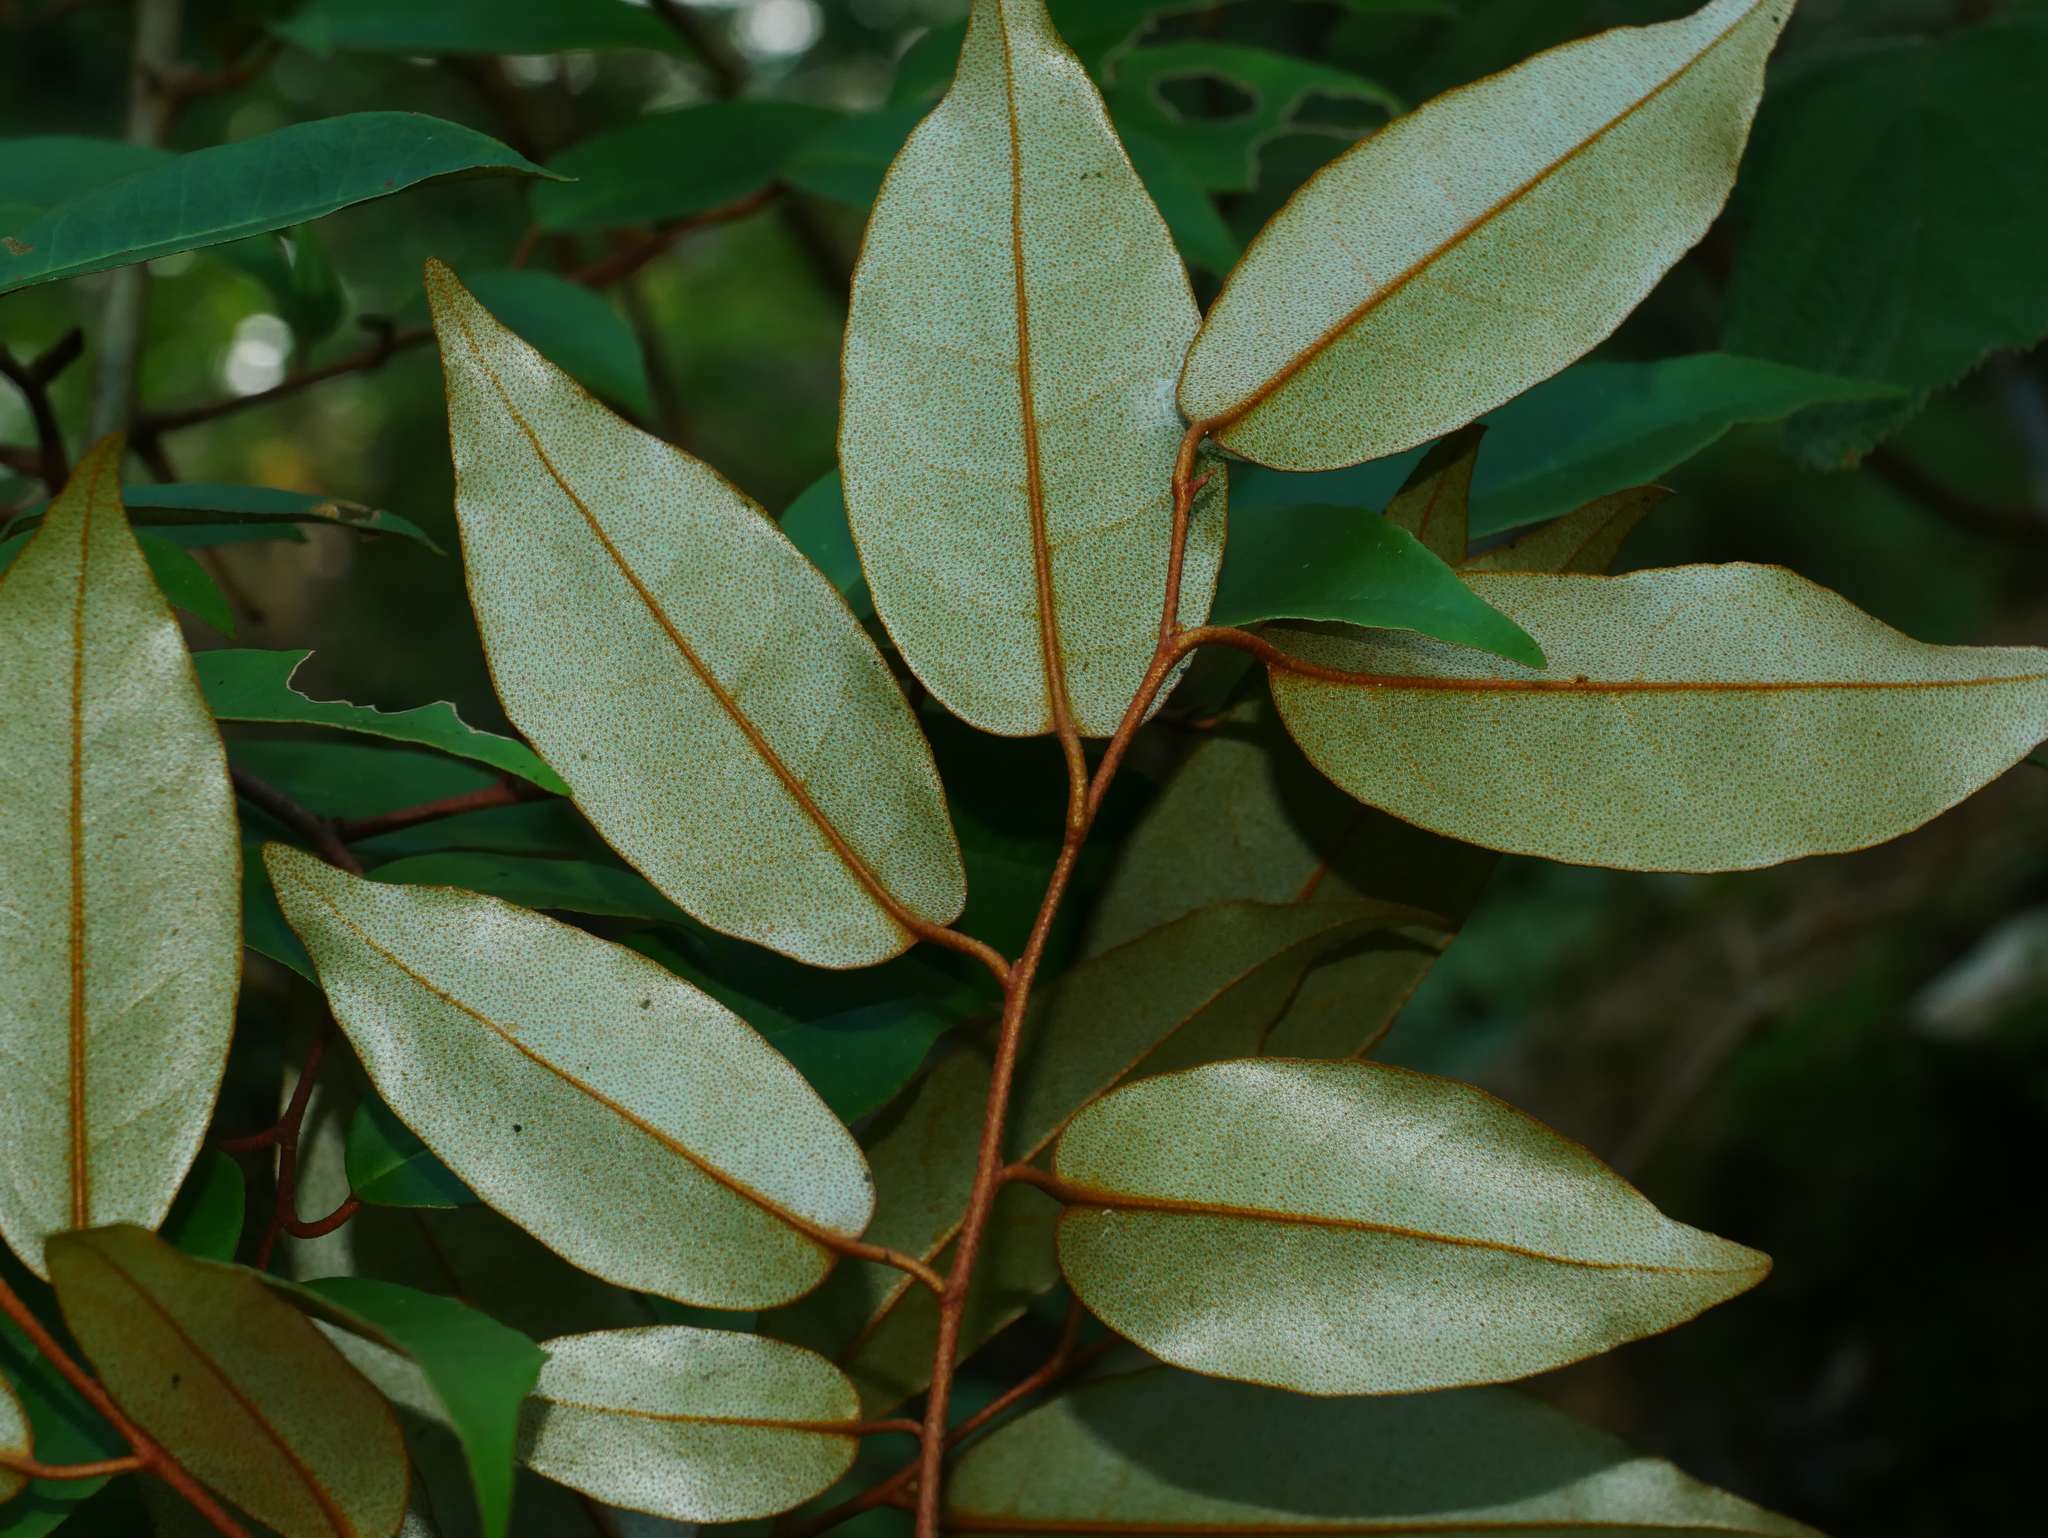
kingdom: Plantae
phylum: Tracheophyta
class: Magnoliopsida
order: Rosales
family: Elaeagnaceae
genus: Elaeagnus
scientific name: Elaeagnus glabra
